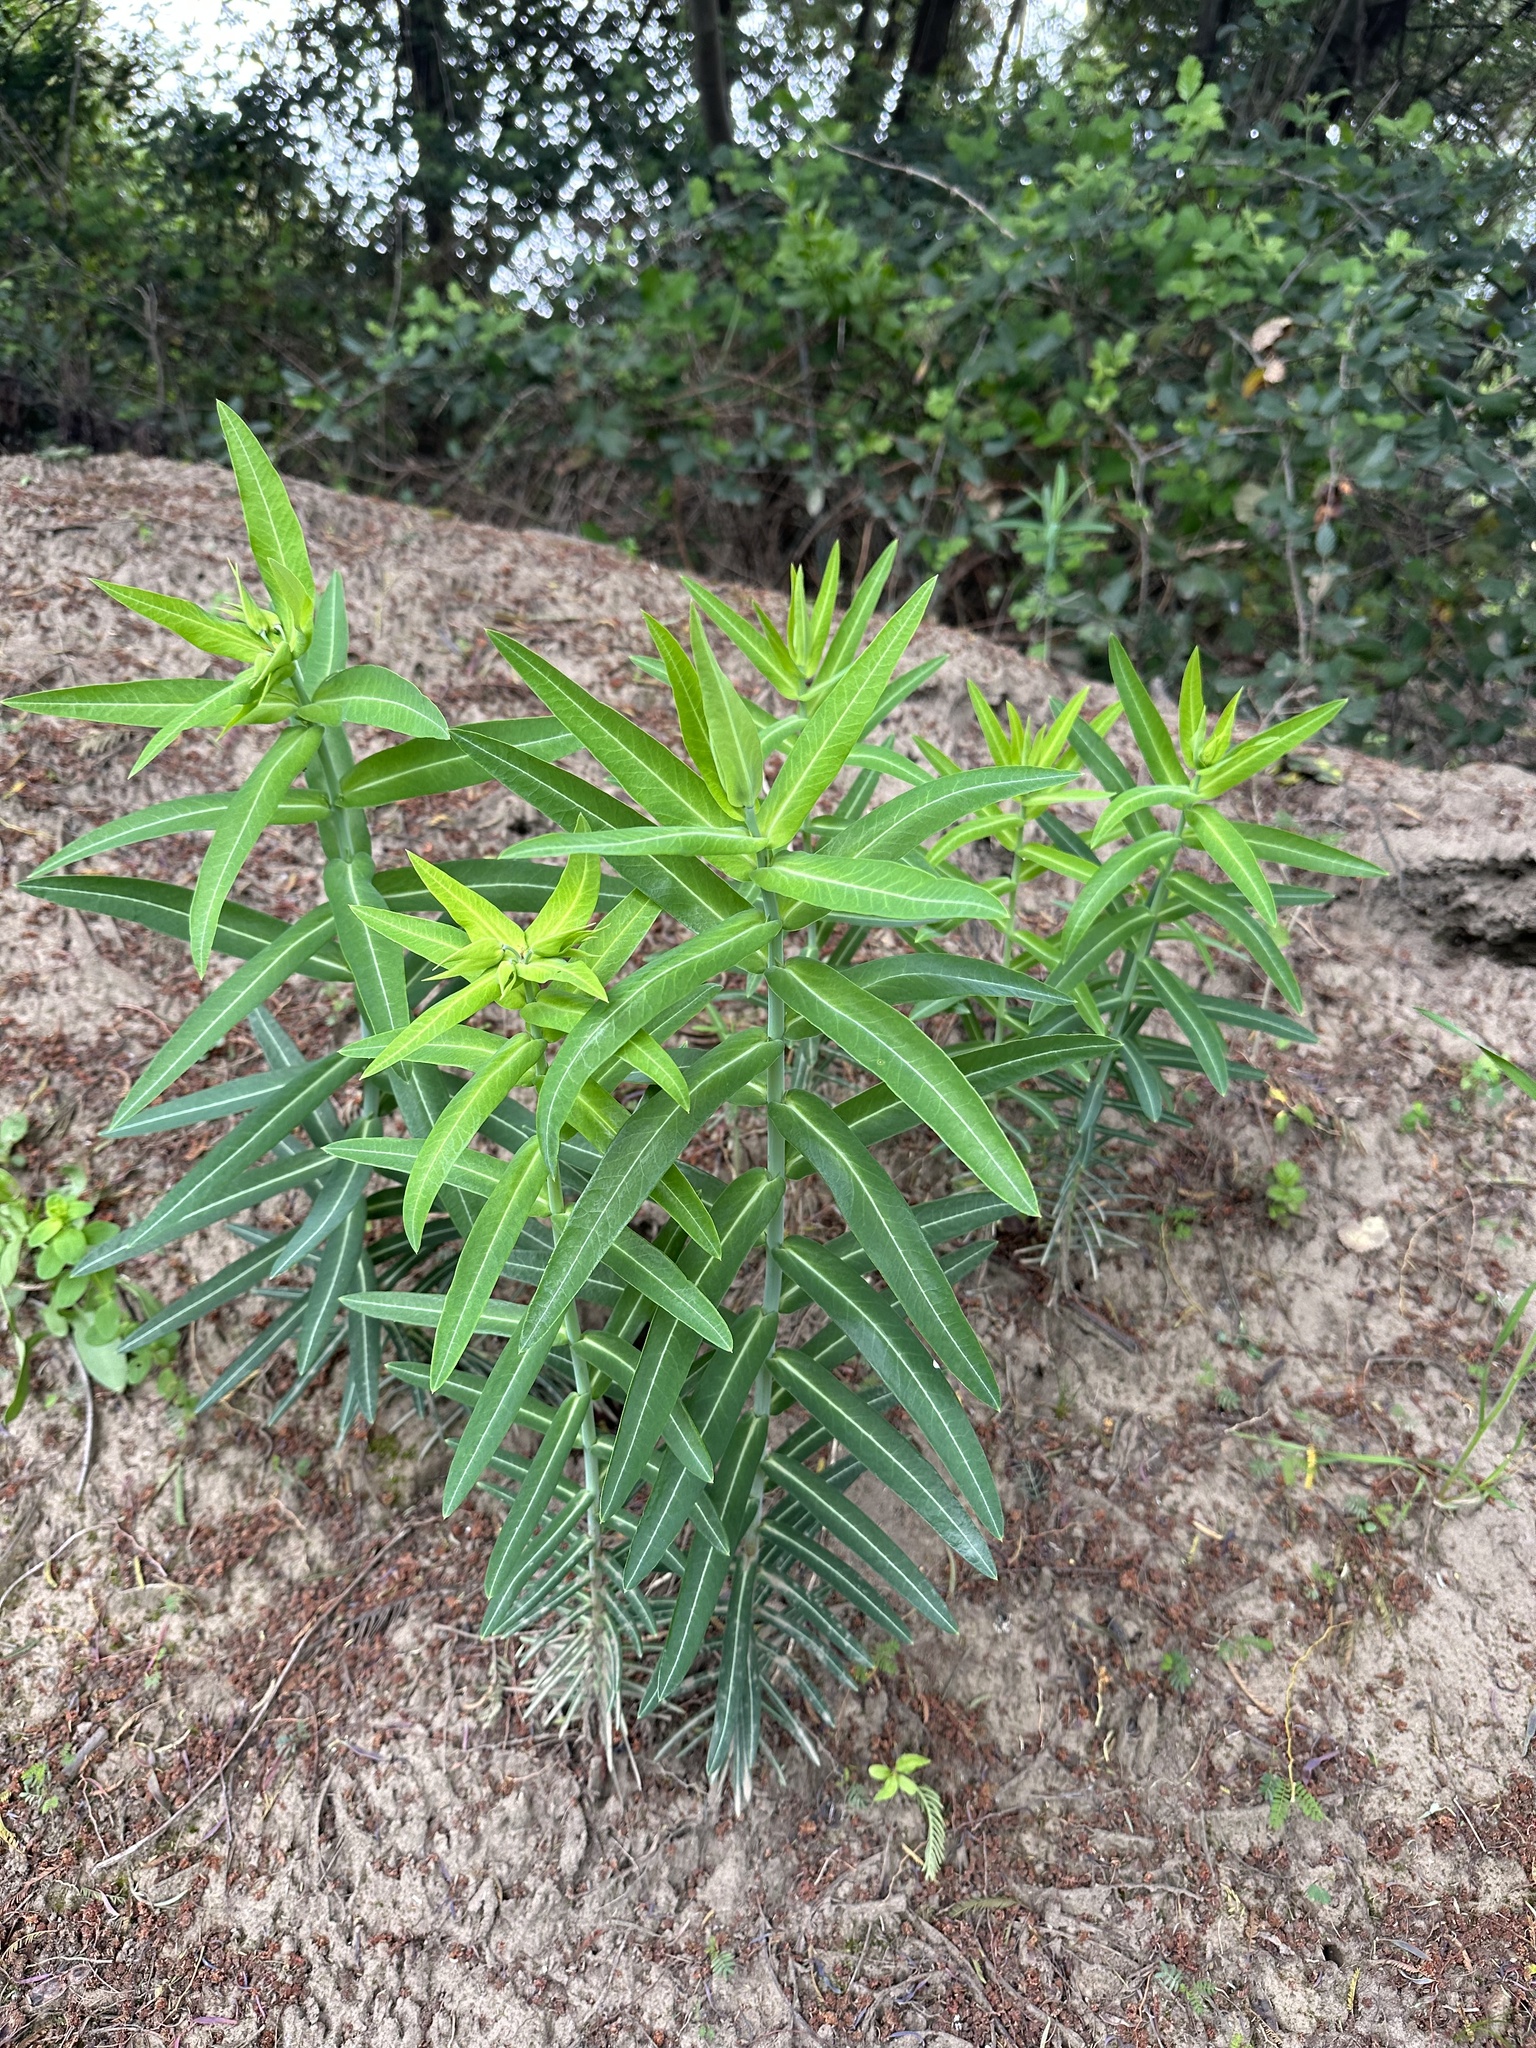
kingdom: Plantae
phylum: Tracheophyta
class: Magnoliopsida
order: Malpighiales
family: Euphorbiaceae
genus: Euphorbia
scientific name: Euphorbia lathyris
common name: Caper spurge
